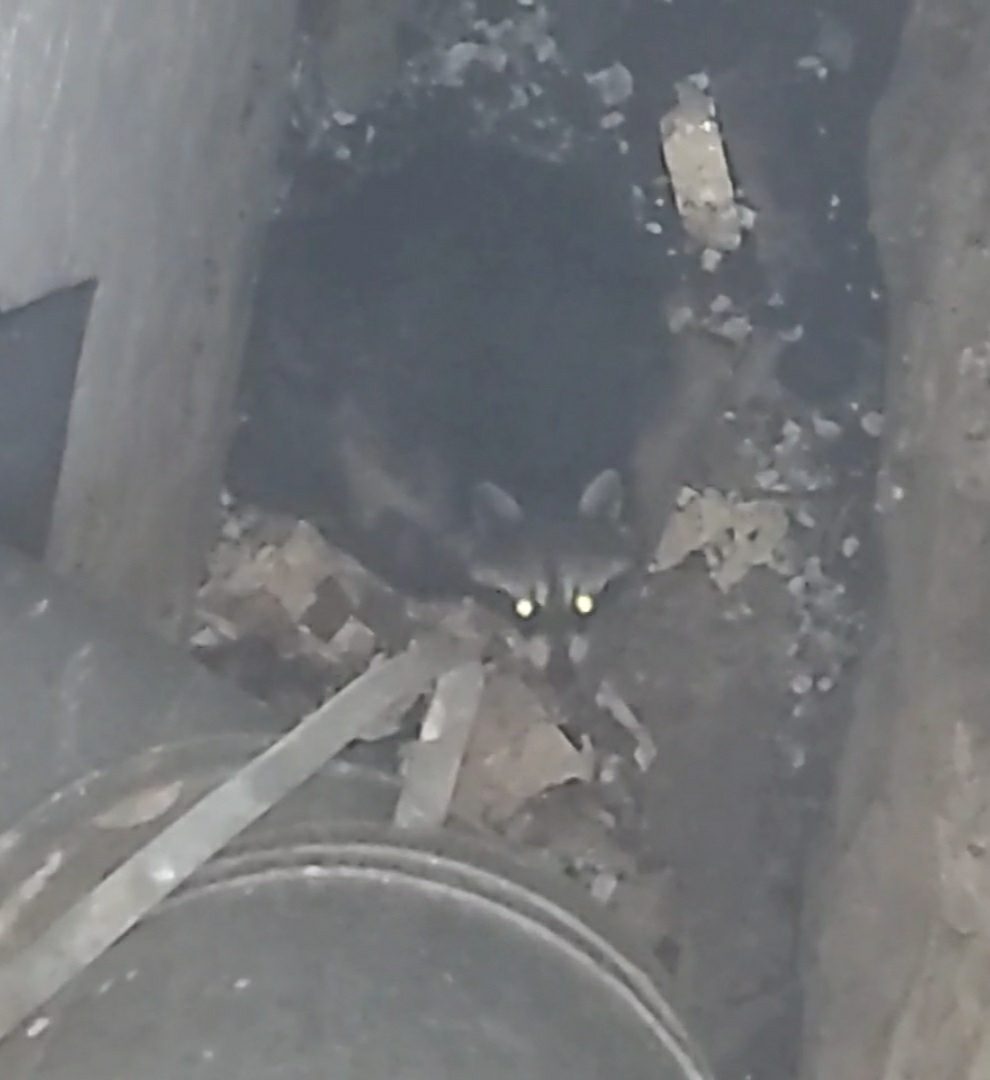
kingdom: Animalia
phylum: Chordata
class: Mammalia
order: Carnivora
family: Procyonidae
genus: Procyon
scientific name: Procyon lotor
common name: Raccoon
